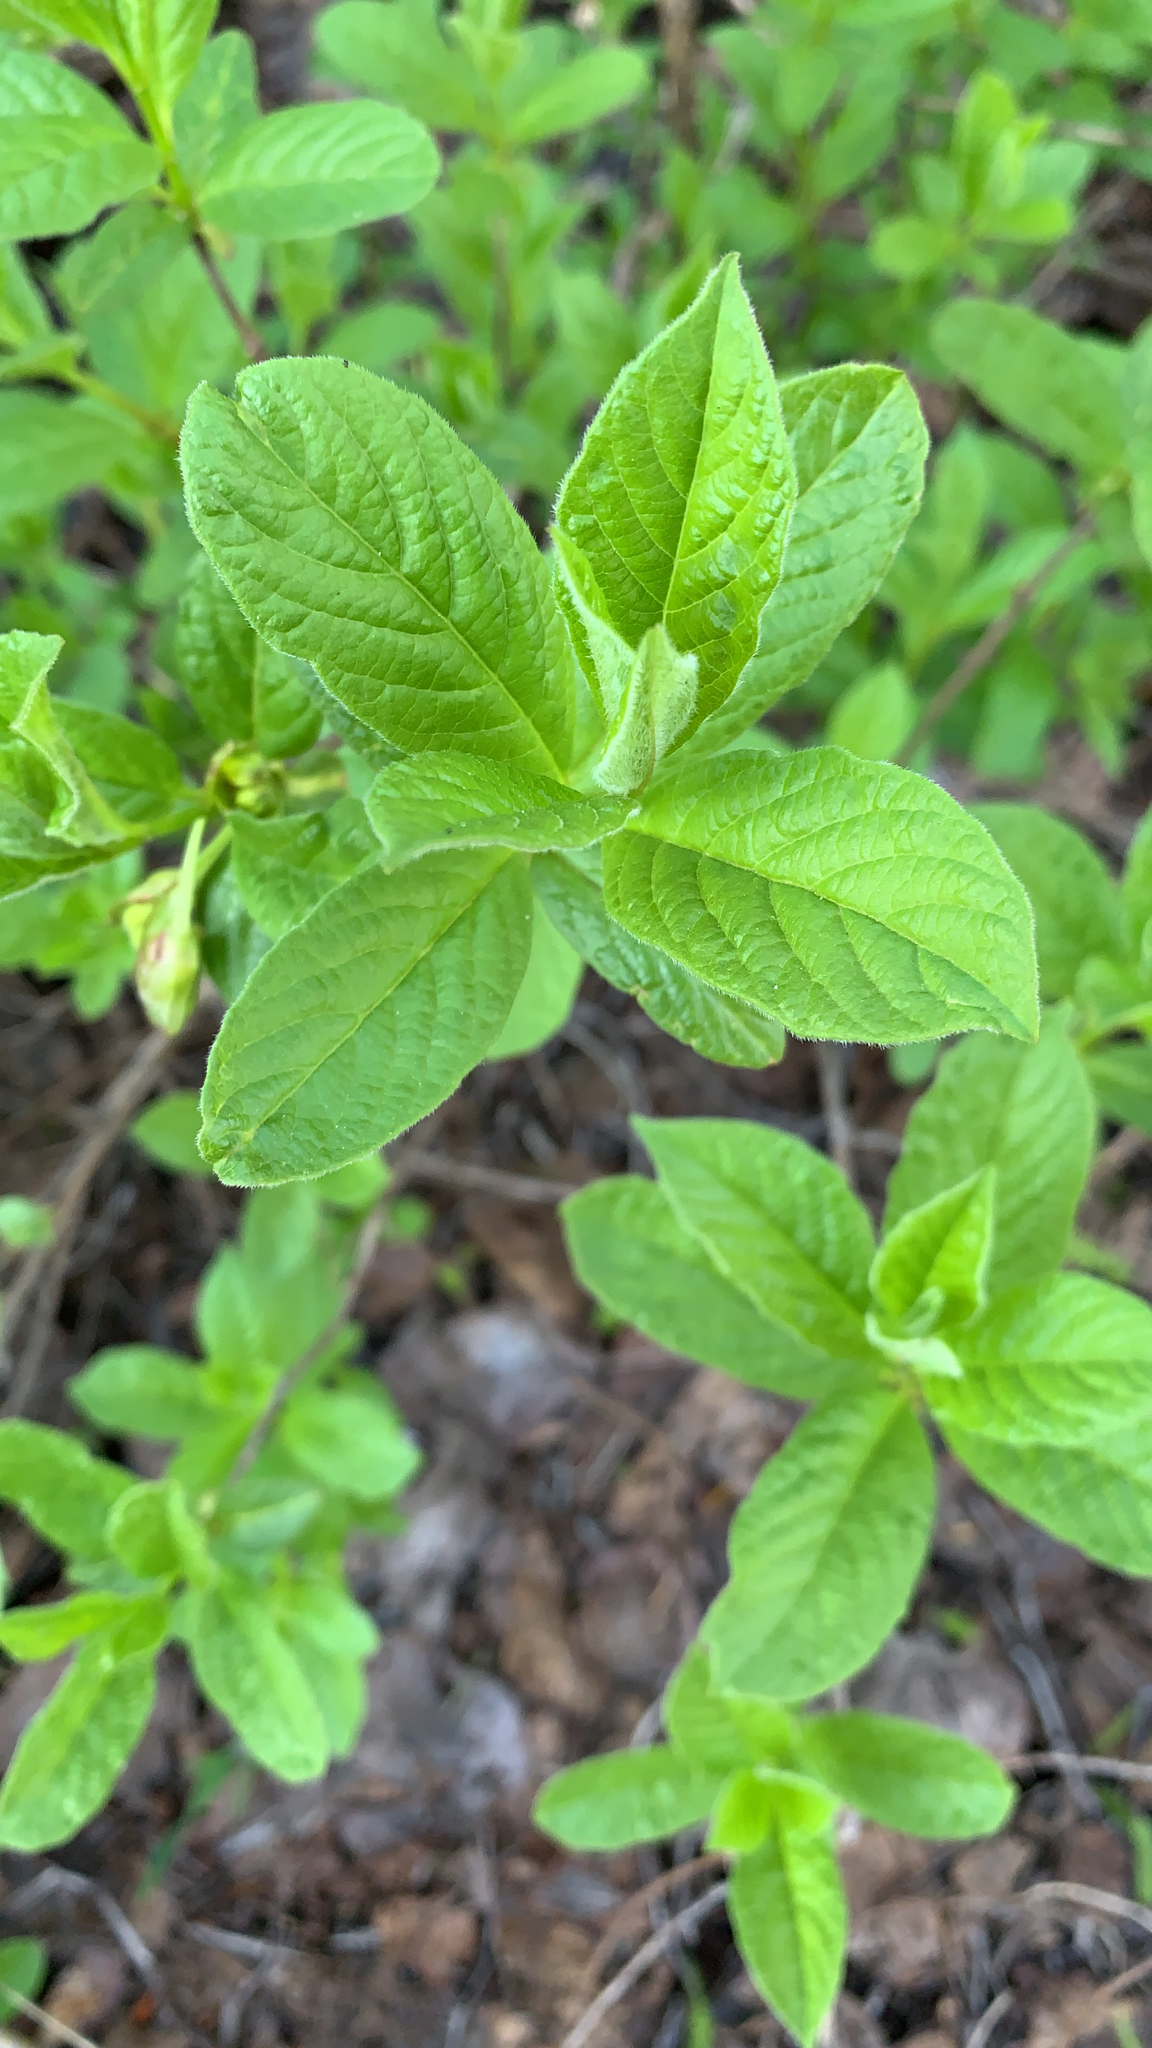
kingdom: Plantae
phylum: Tracheophyta
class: Magnoliopsida
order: Dipsacales
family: Caprifoliaceae
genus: Lonicera
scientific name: Lonicera involucrata
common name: Californian honeysuckle
